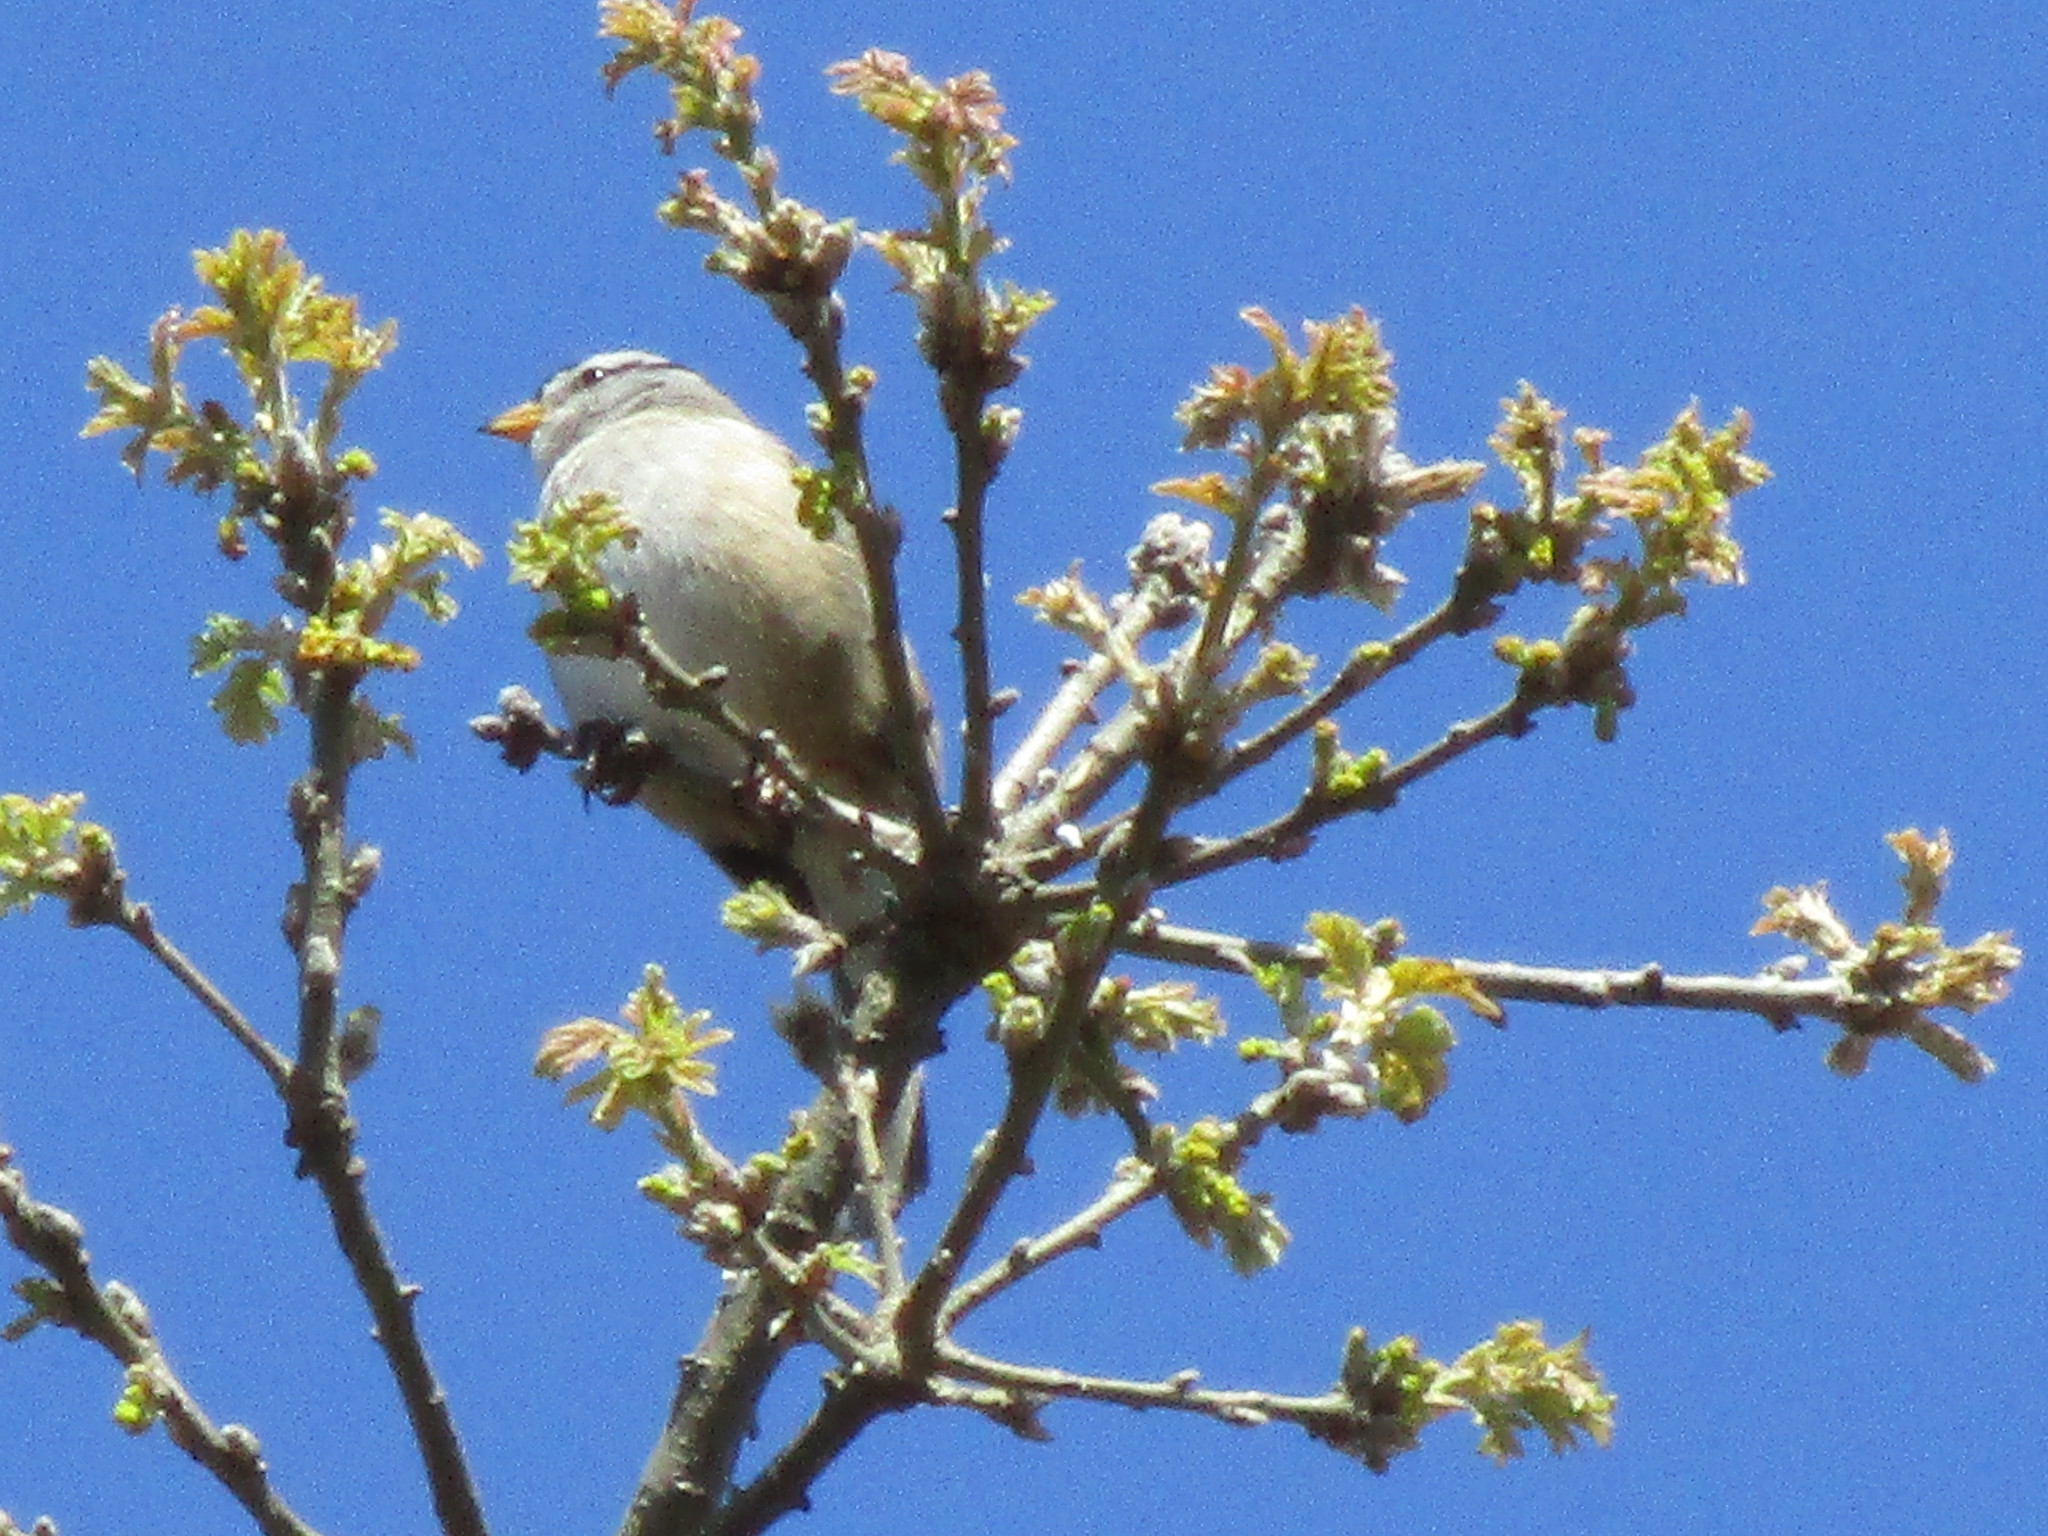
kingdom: Animalia
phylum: Chordata
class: Aves
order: Passeriformes
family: Passerellidae
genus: Zonotrichia
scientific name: Zonotrichia leucophrys
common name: White-crowned sparrow
